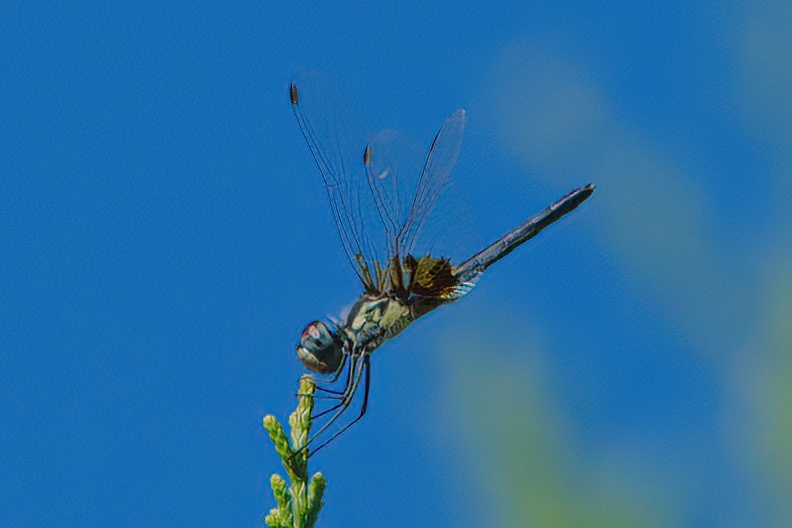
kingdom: Animalia
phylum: Arthropoda
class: Insecta
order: Odonata
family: Libellulidae
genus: Celithemis
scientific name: Celithemis ornata
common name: Ornate pennant
